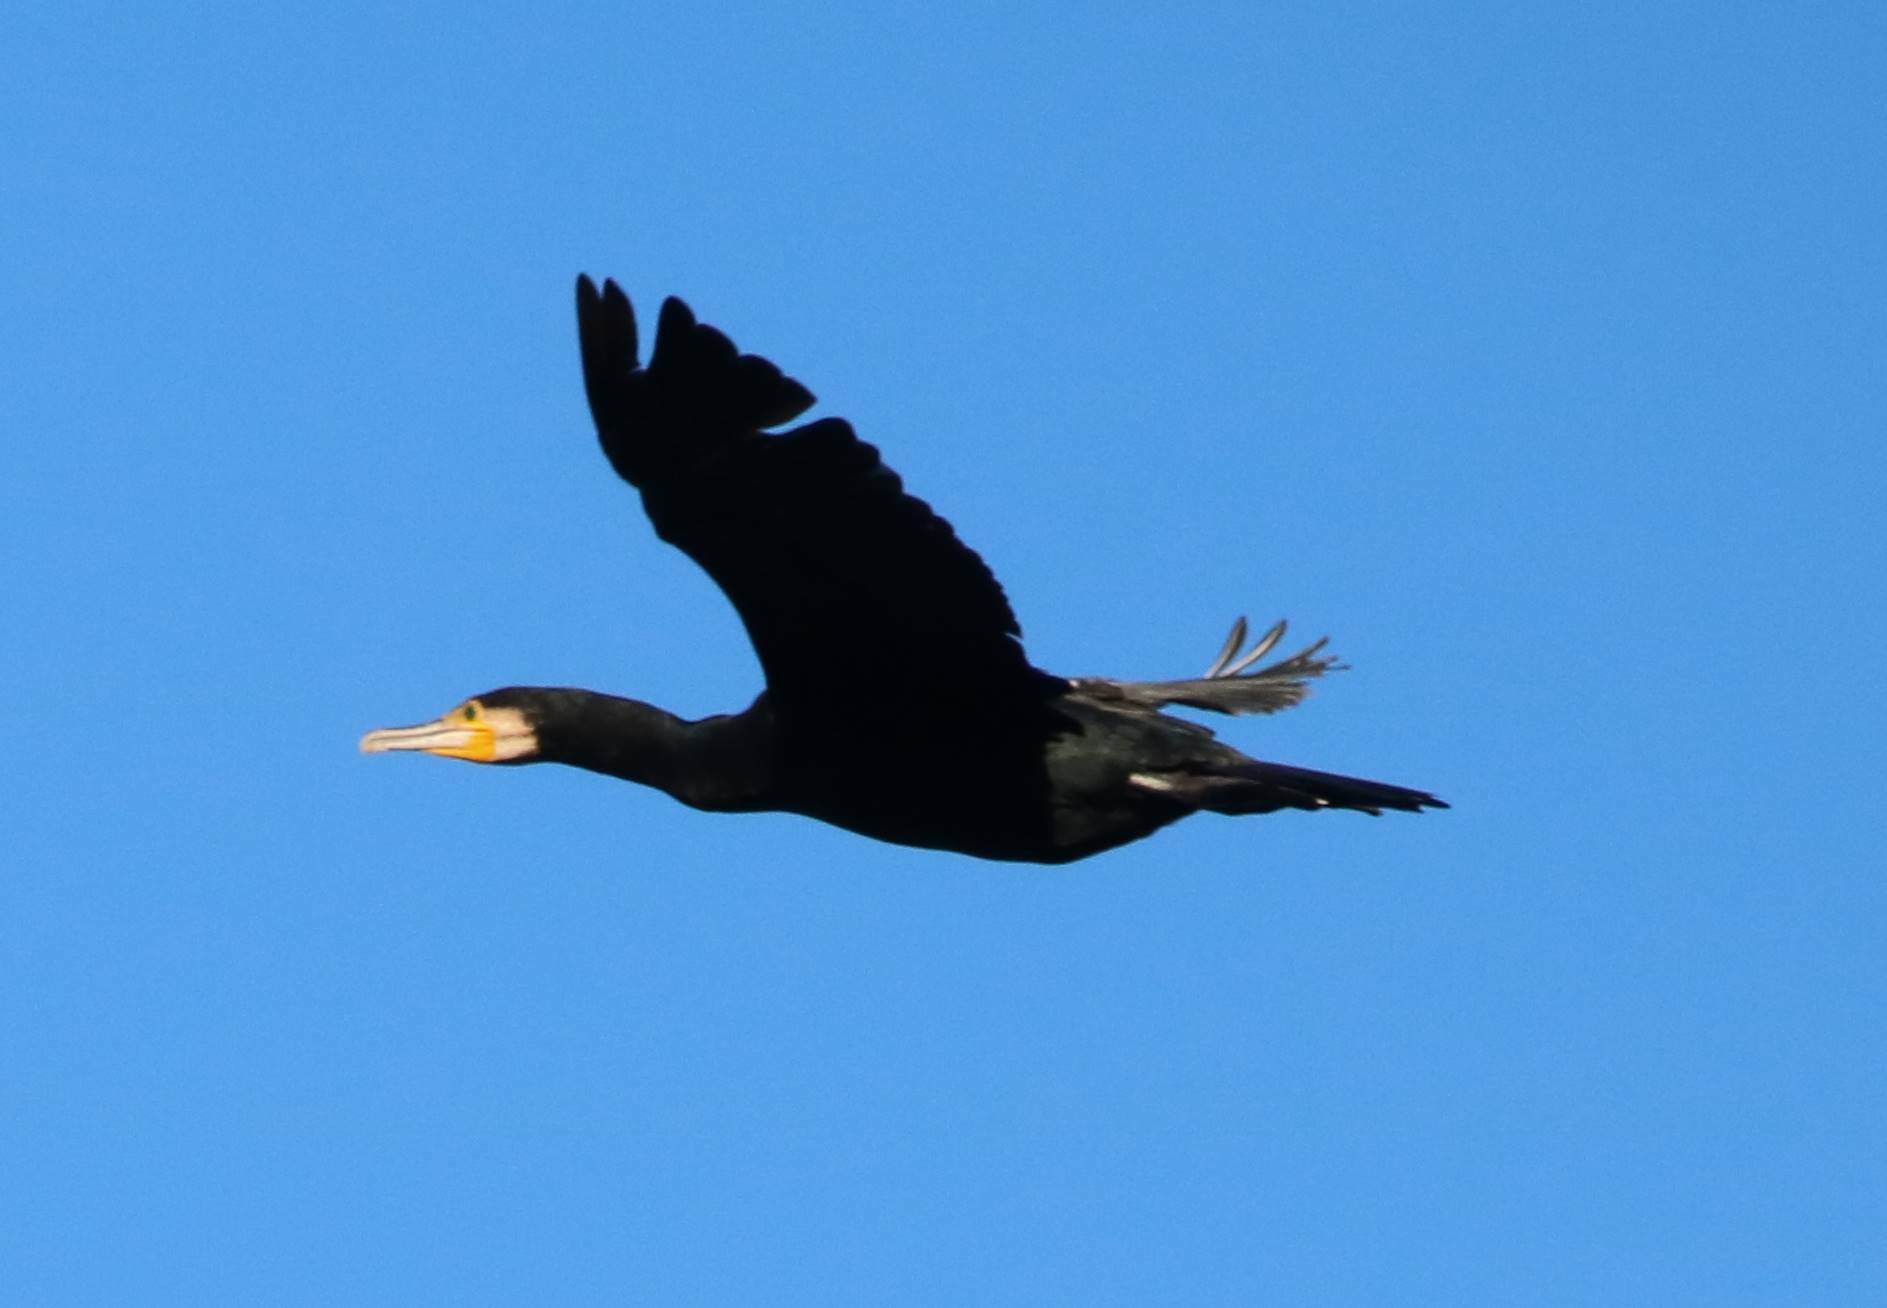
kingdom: Animalia
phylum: Chordata
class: Aves
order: Suliformes
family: Phalacrocoracidae
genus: Phalacrocorax
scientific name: Phalacrocorax carbo
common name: Great cormorant
